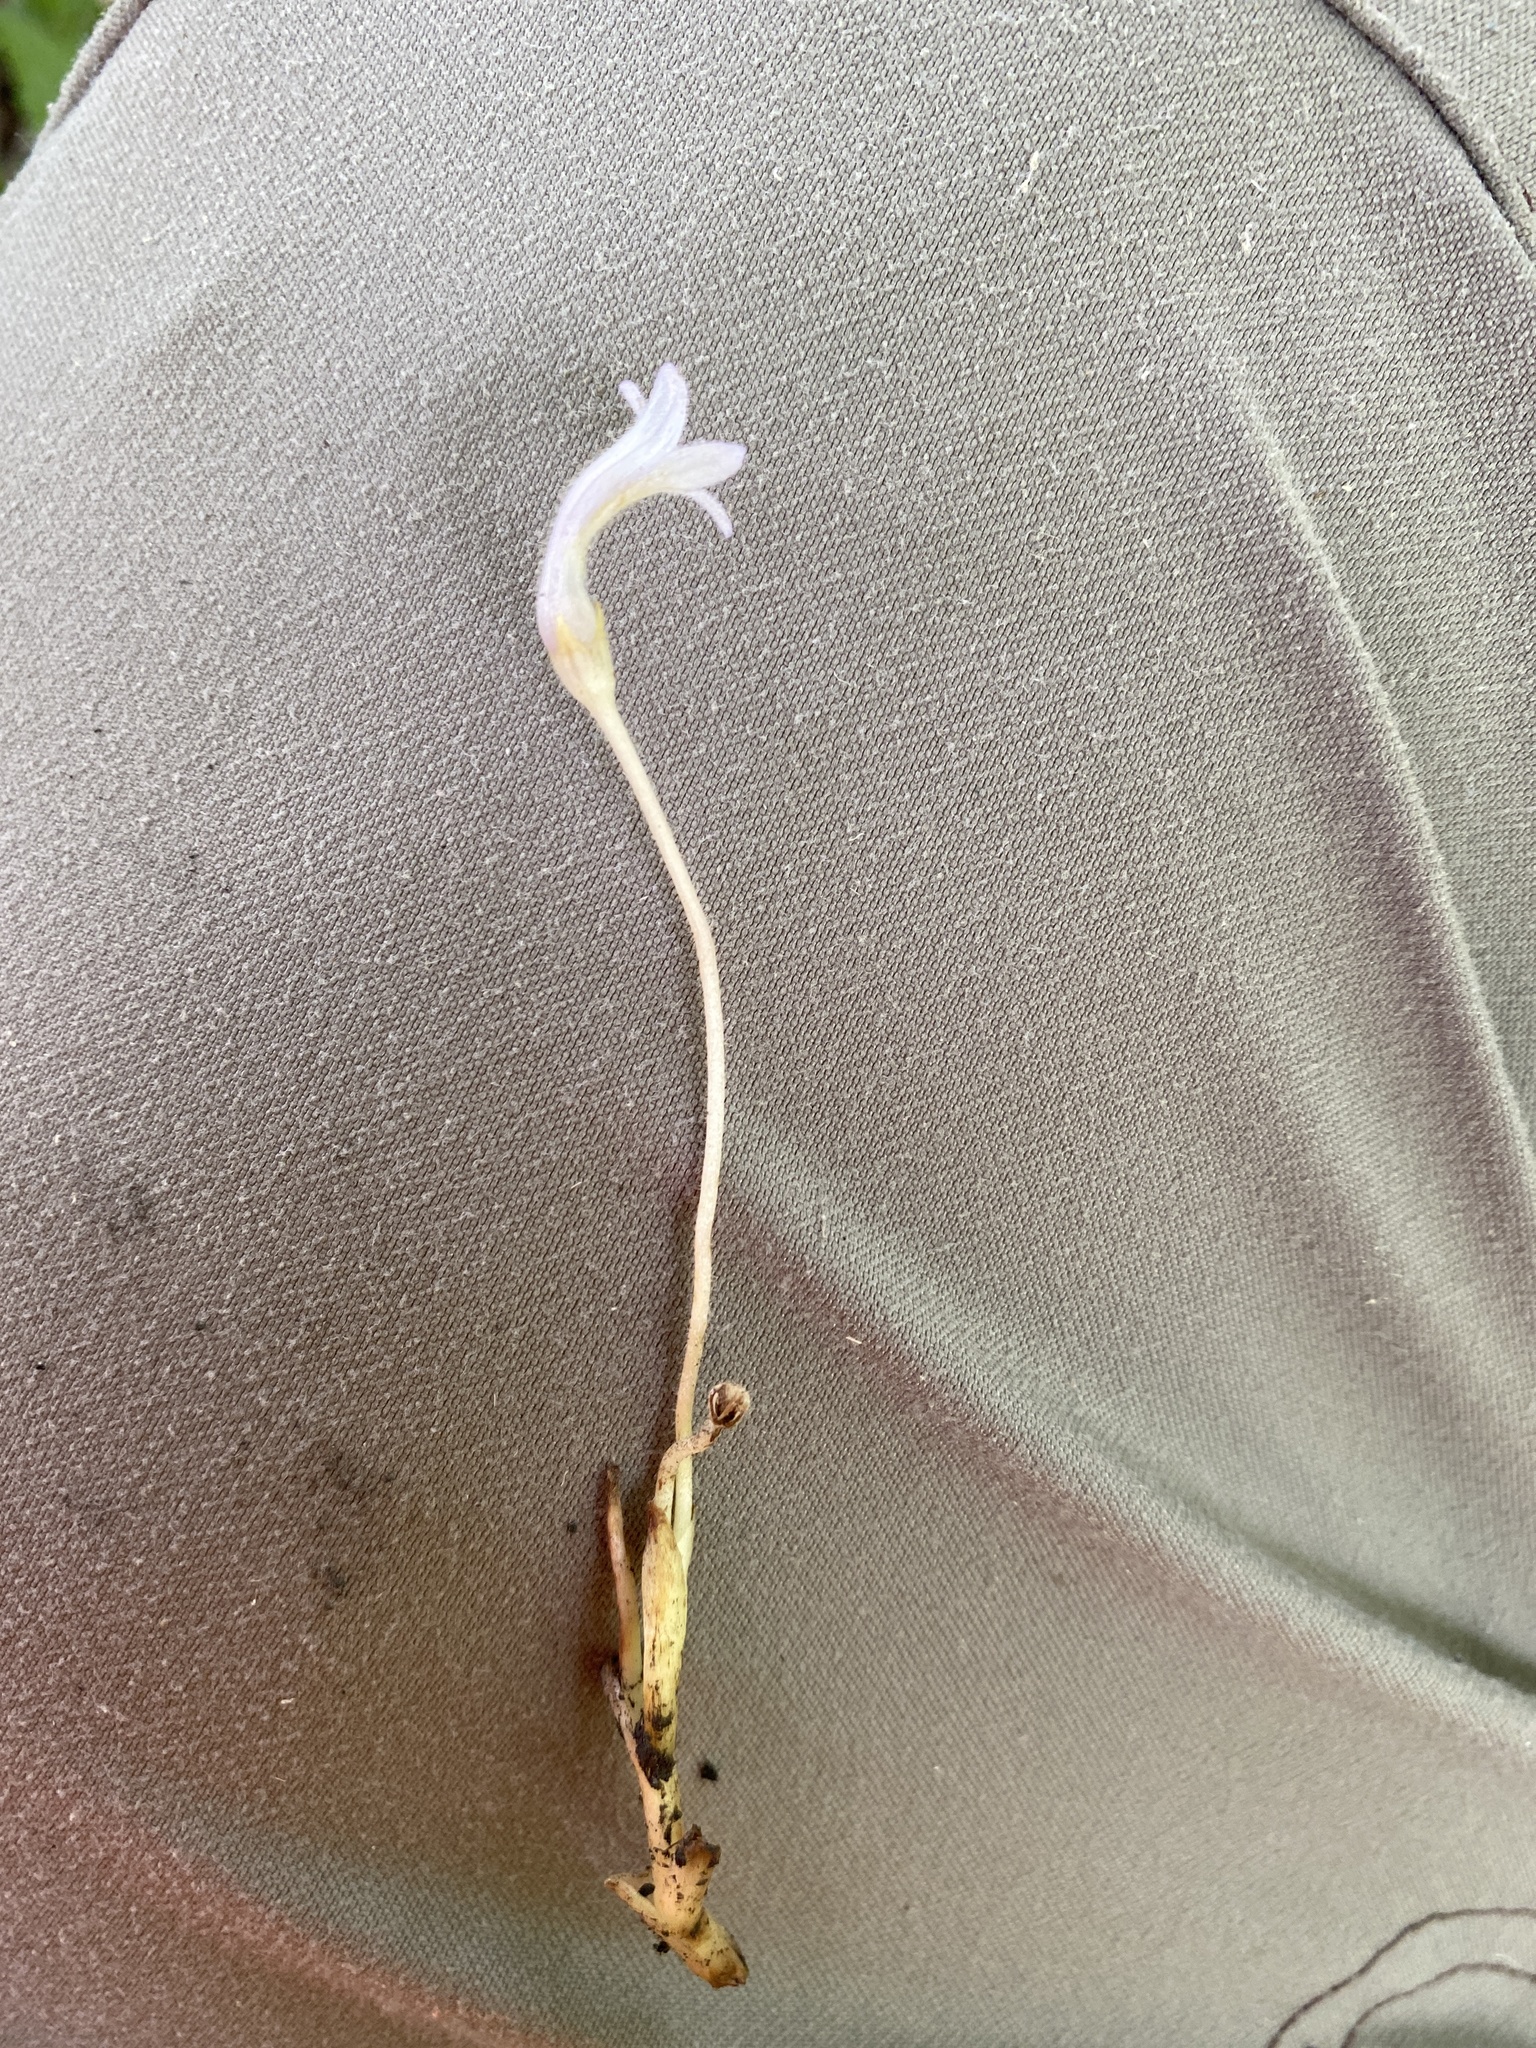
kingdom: Plantae
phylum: Tracheophyta
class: Magnoliopsida
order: Lamiales
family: Orobanchaceae
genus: Aphyllon
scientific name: Aphyllon uniflorum
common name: One-flowered broomrape
